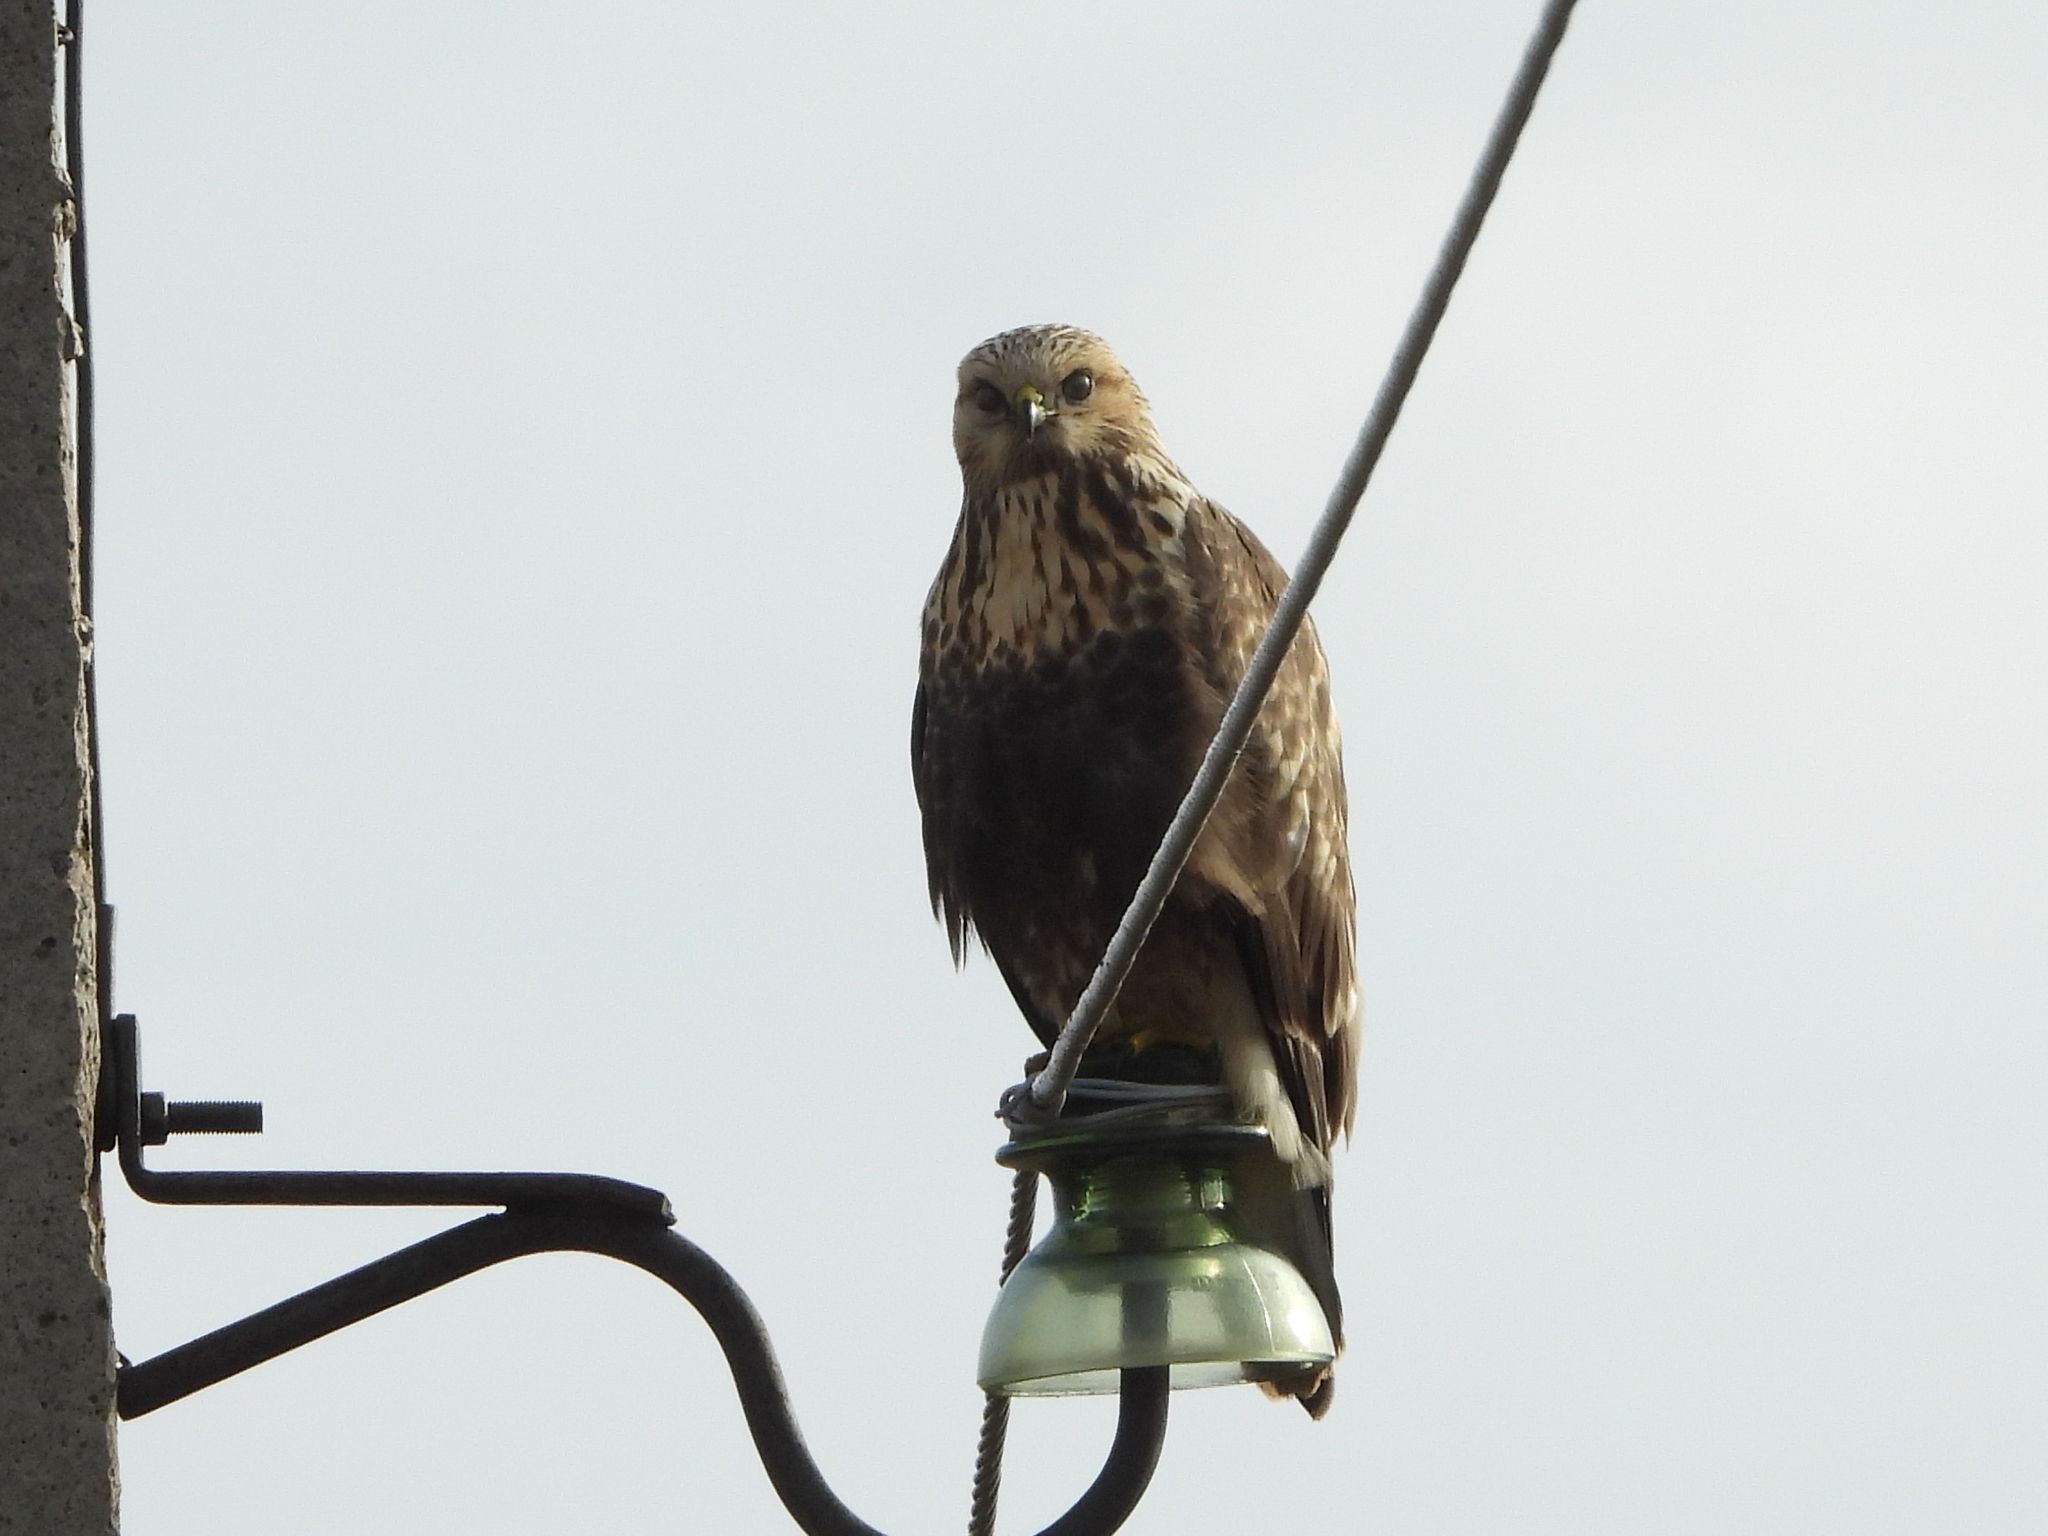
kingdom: Animalia
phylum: Chordata
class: Aves
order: Accipitriformes
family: Accipitridae
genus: Buteo
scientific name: Buteo lagopus
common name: Rough-legged buzzard
